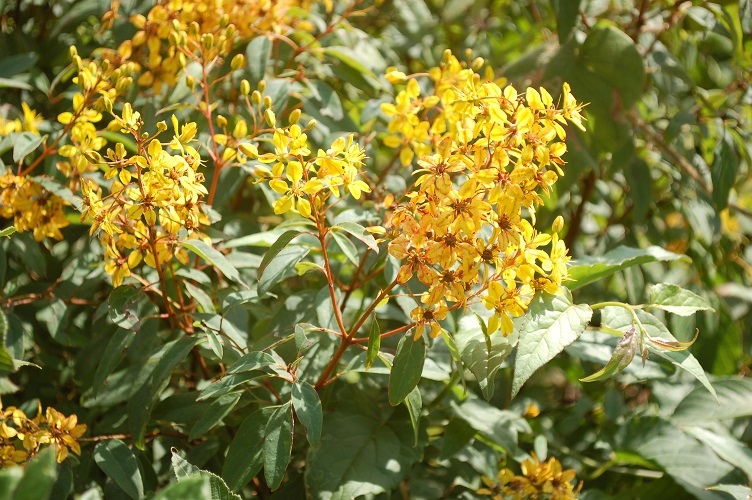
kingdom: Plantae
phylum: Tracheophyta
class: Magnoliopsida
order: Malpighiales
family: Malpighiaceae
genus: Galphimia
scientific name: Galphimia speciosa
